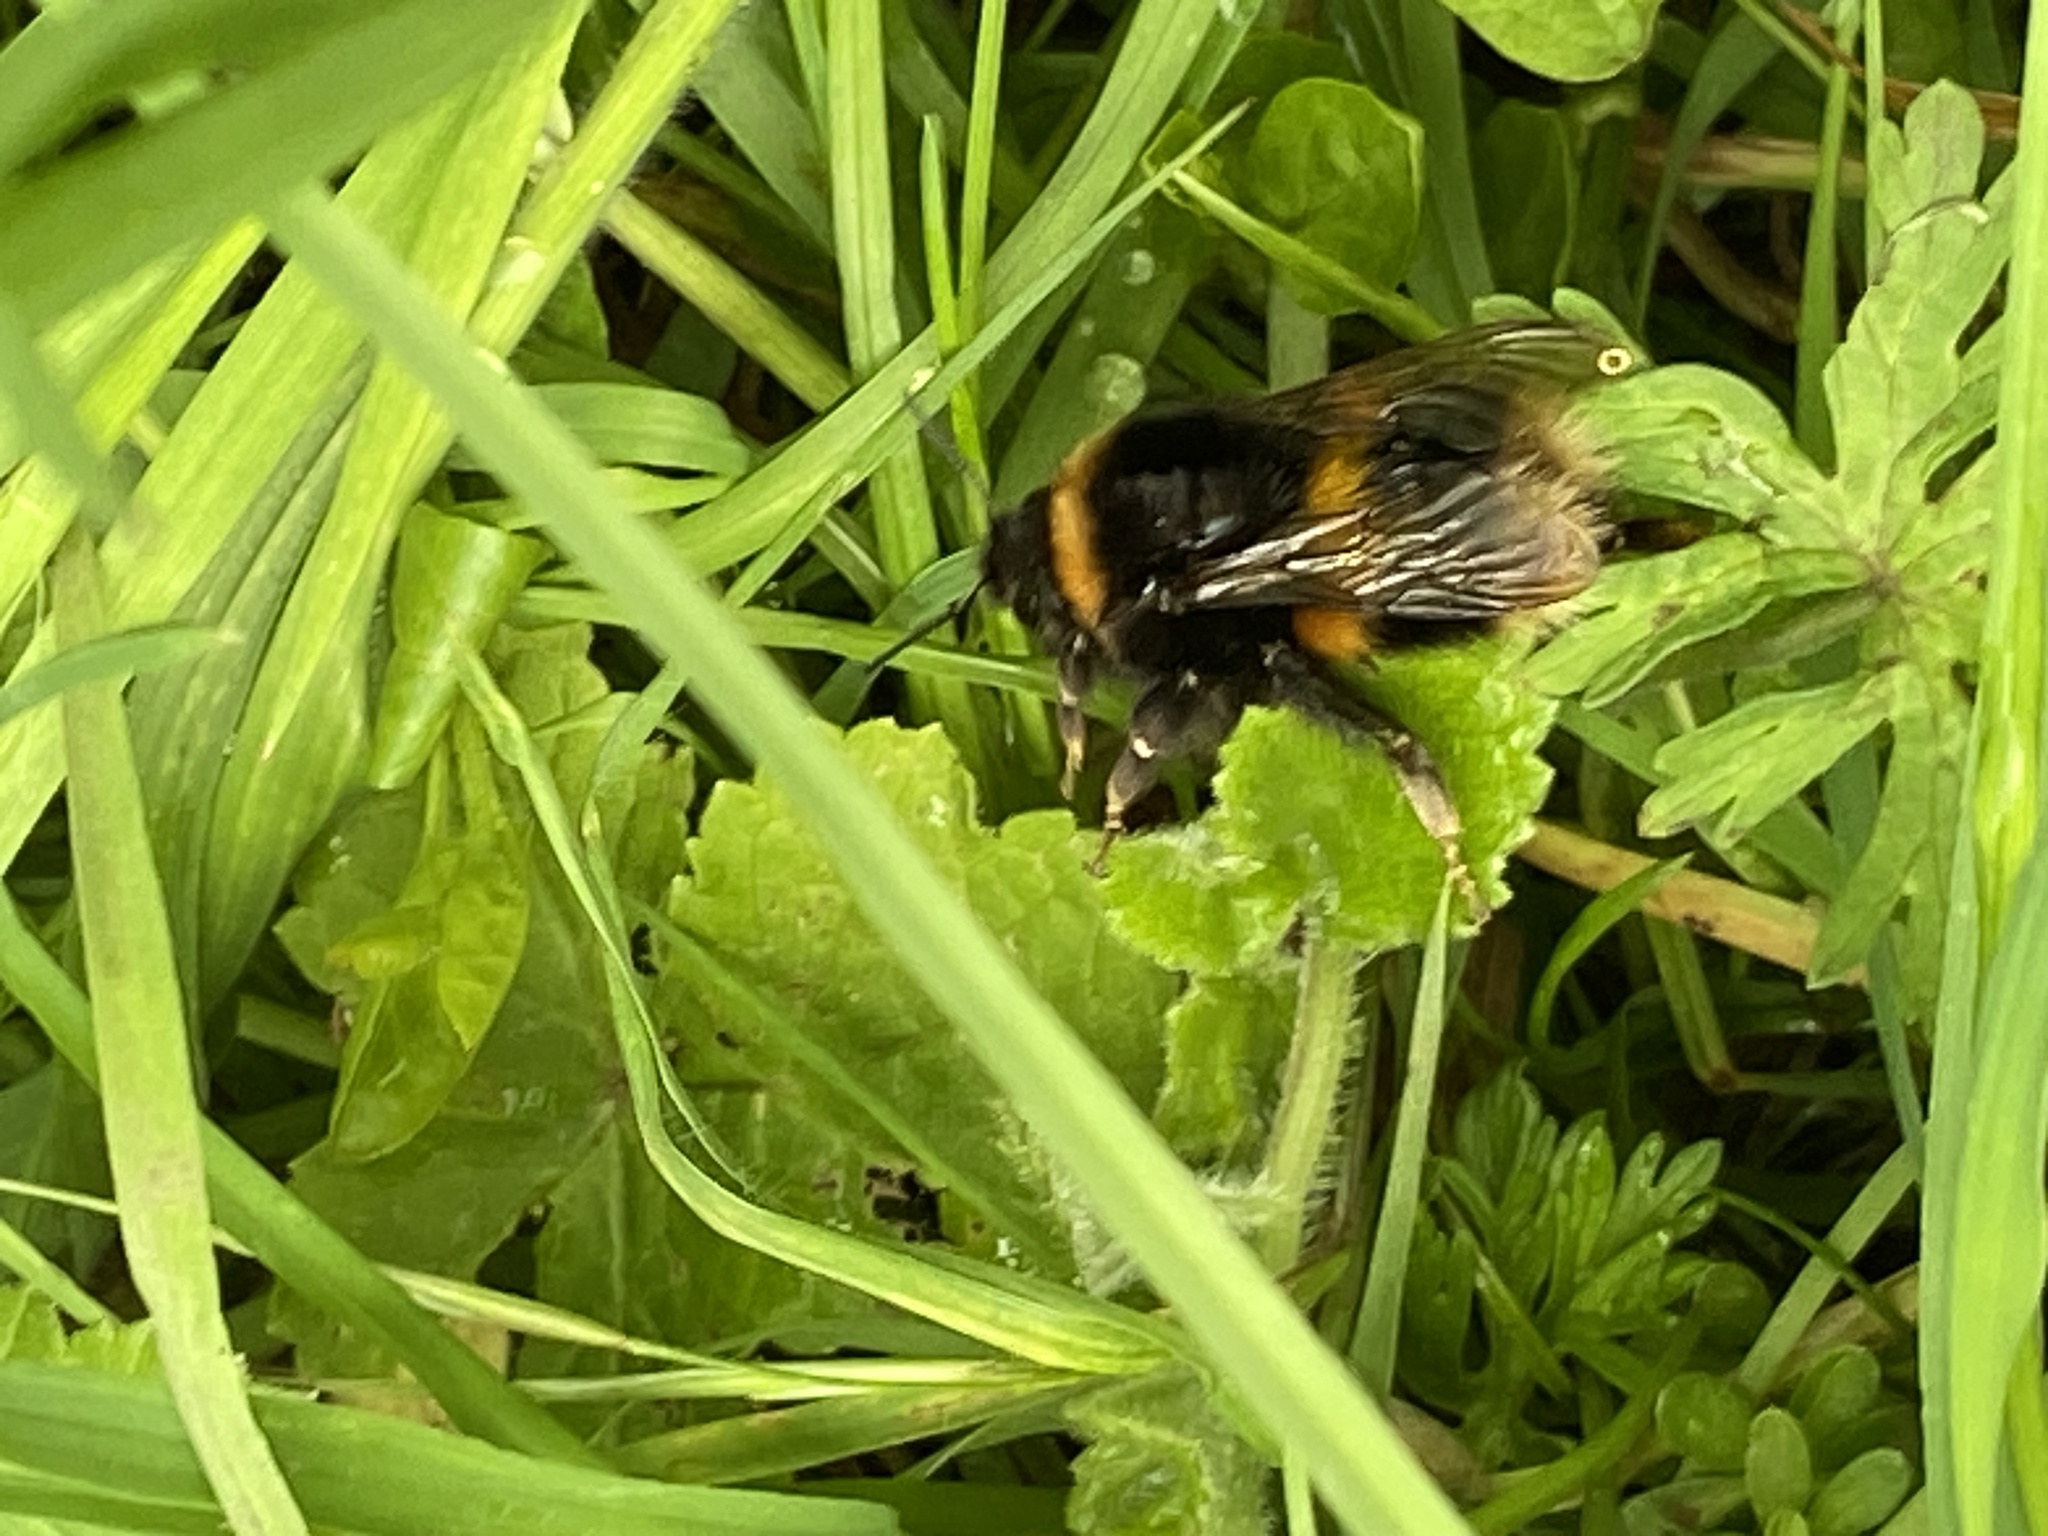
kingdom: Animalia
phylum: Arthropoda
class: Insecta
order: Hymenoptera
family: Apidae
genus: Bombus
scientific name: Bombus terrestris
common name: Buff-tailed bumblebee
